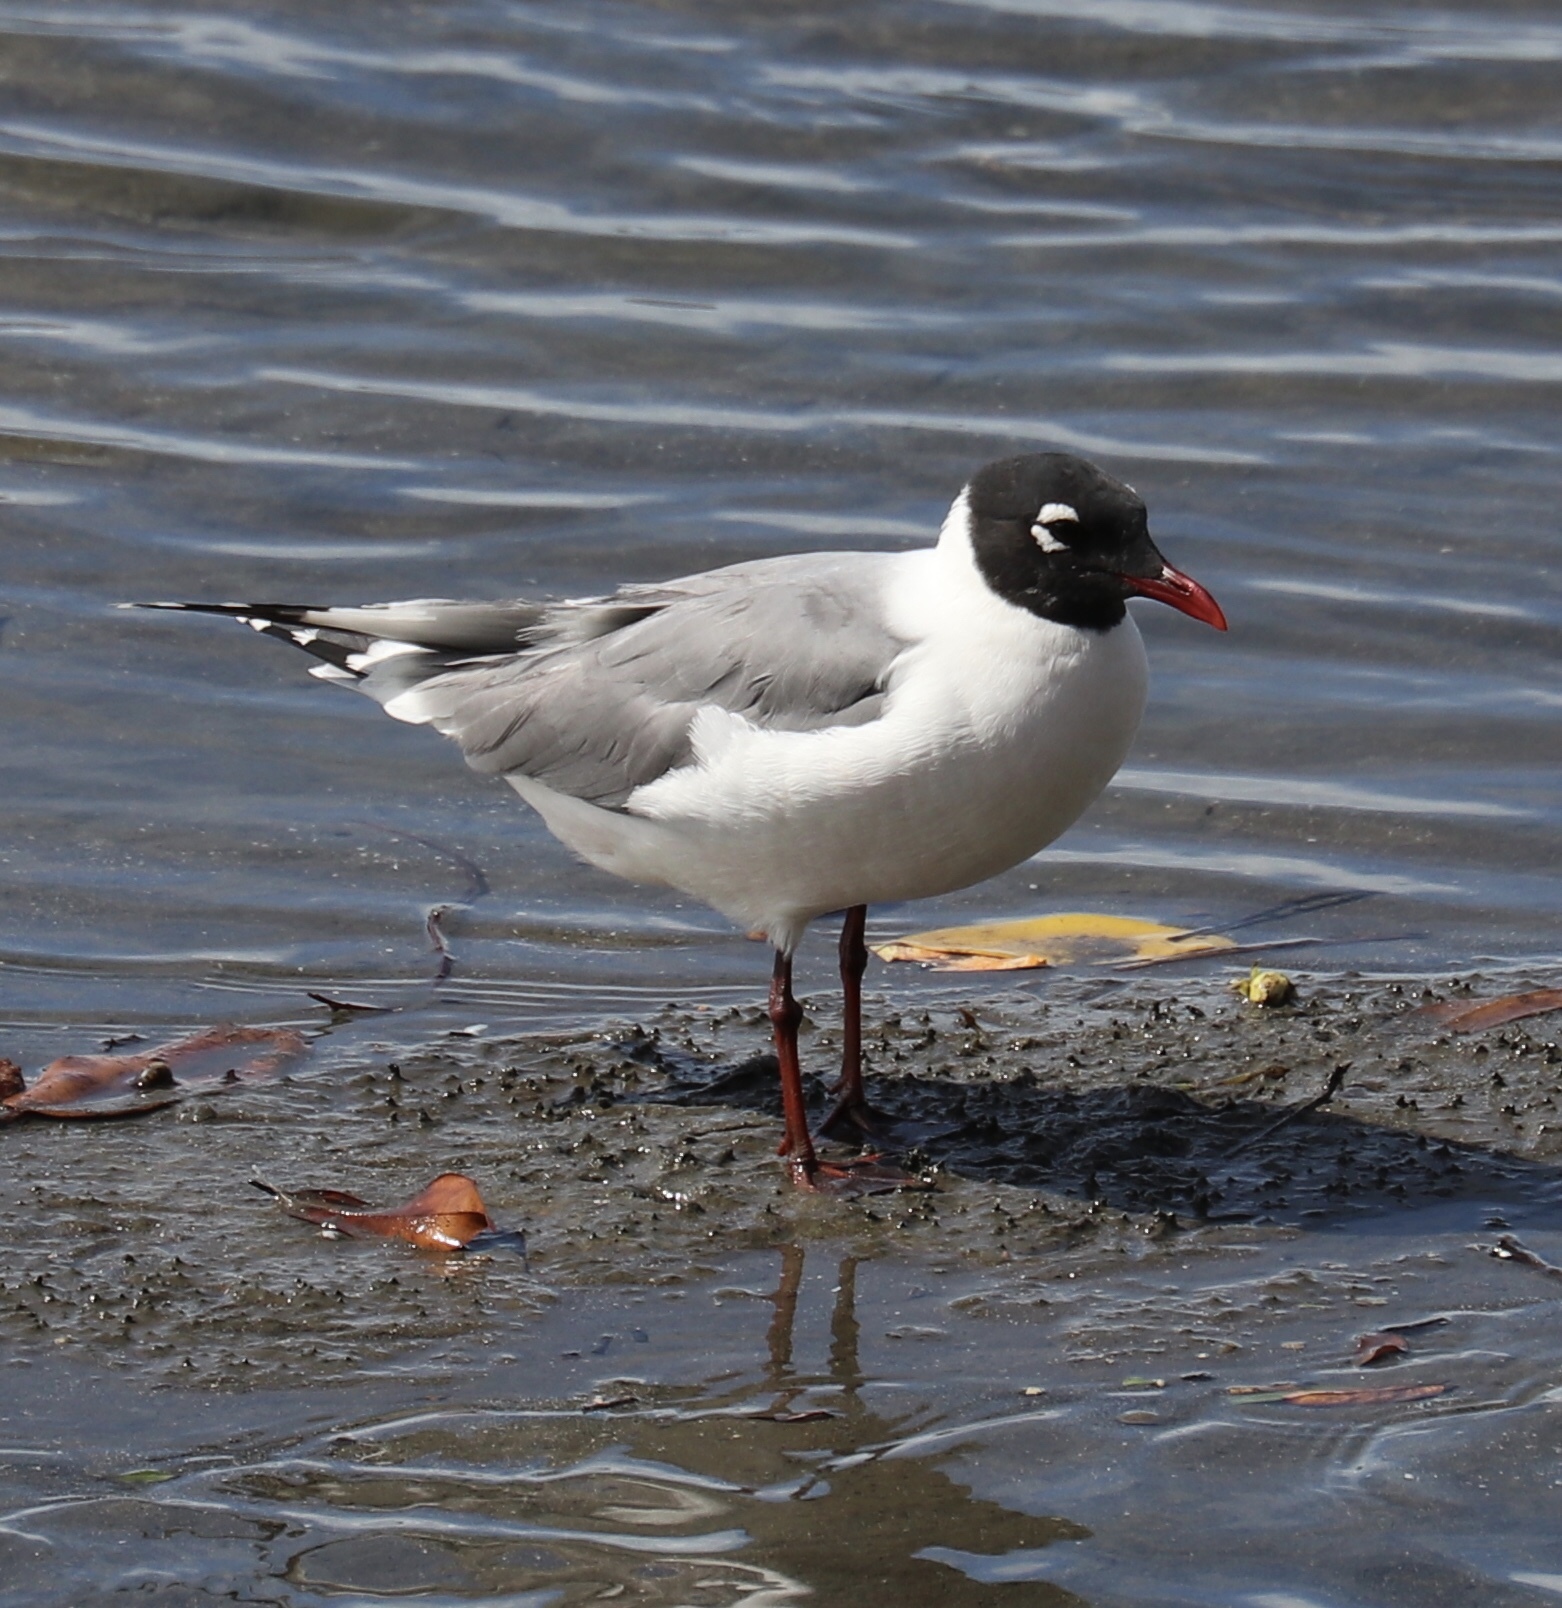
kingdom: Animalia
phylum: Chordata
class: Aves
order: Charadriiformes
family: Laridae
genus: Leucophaeus
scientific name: Leucophaeus pipixcan
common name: Franklin's gull
